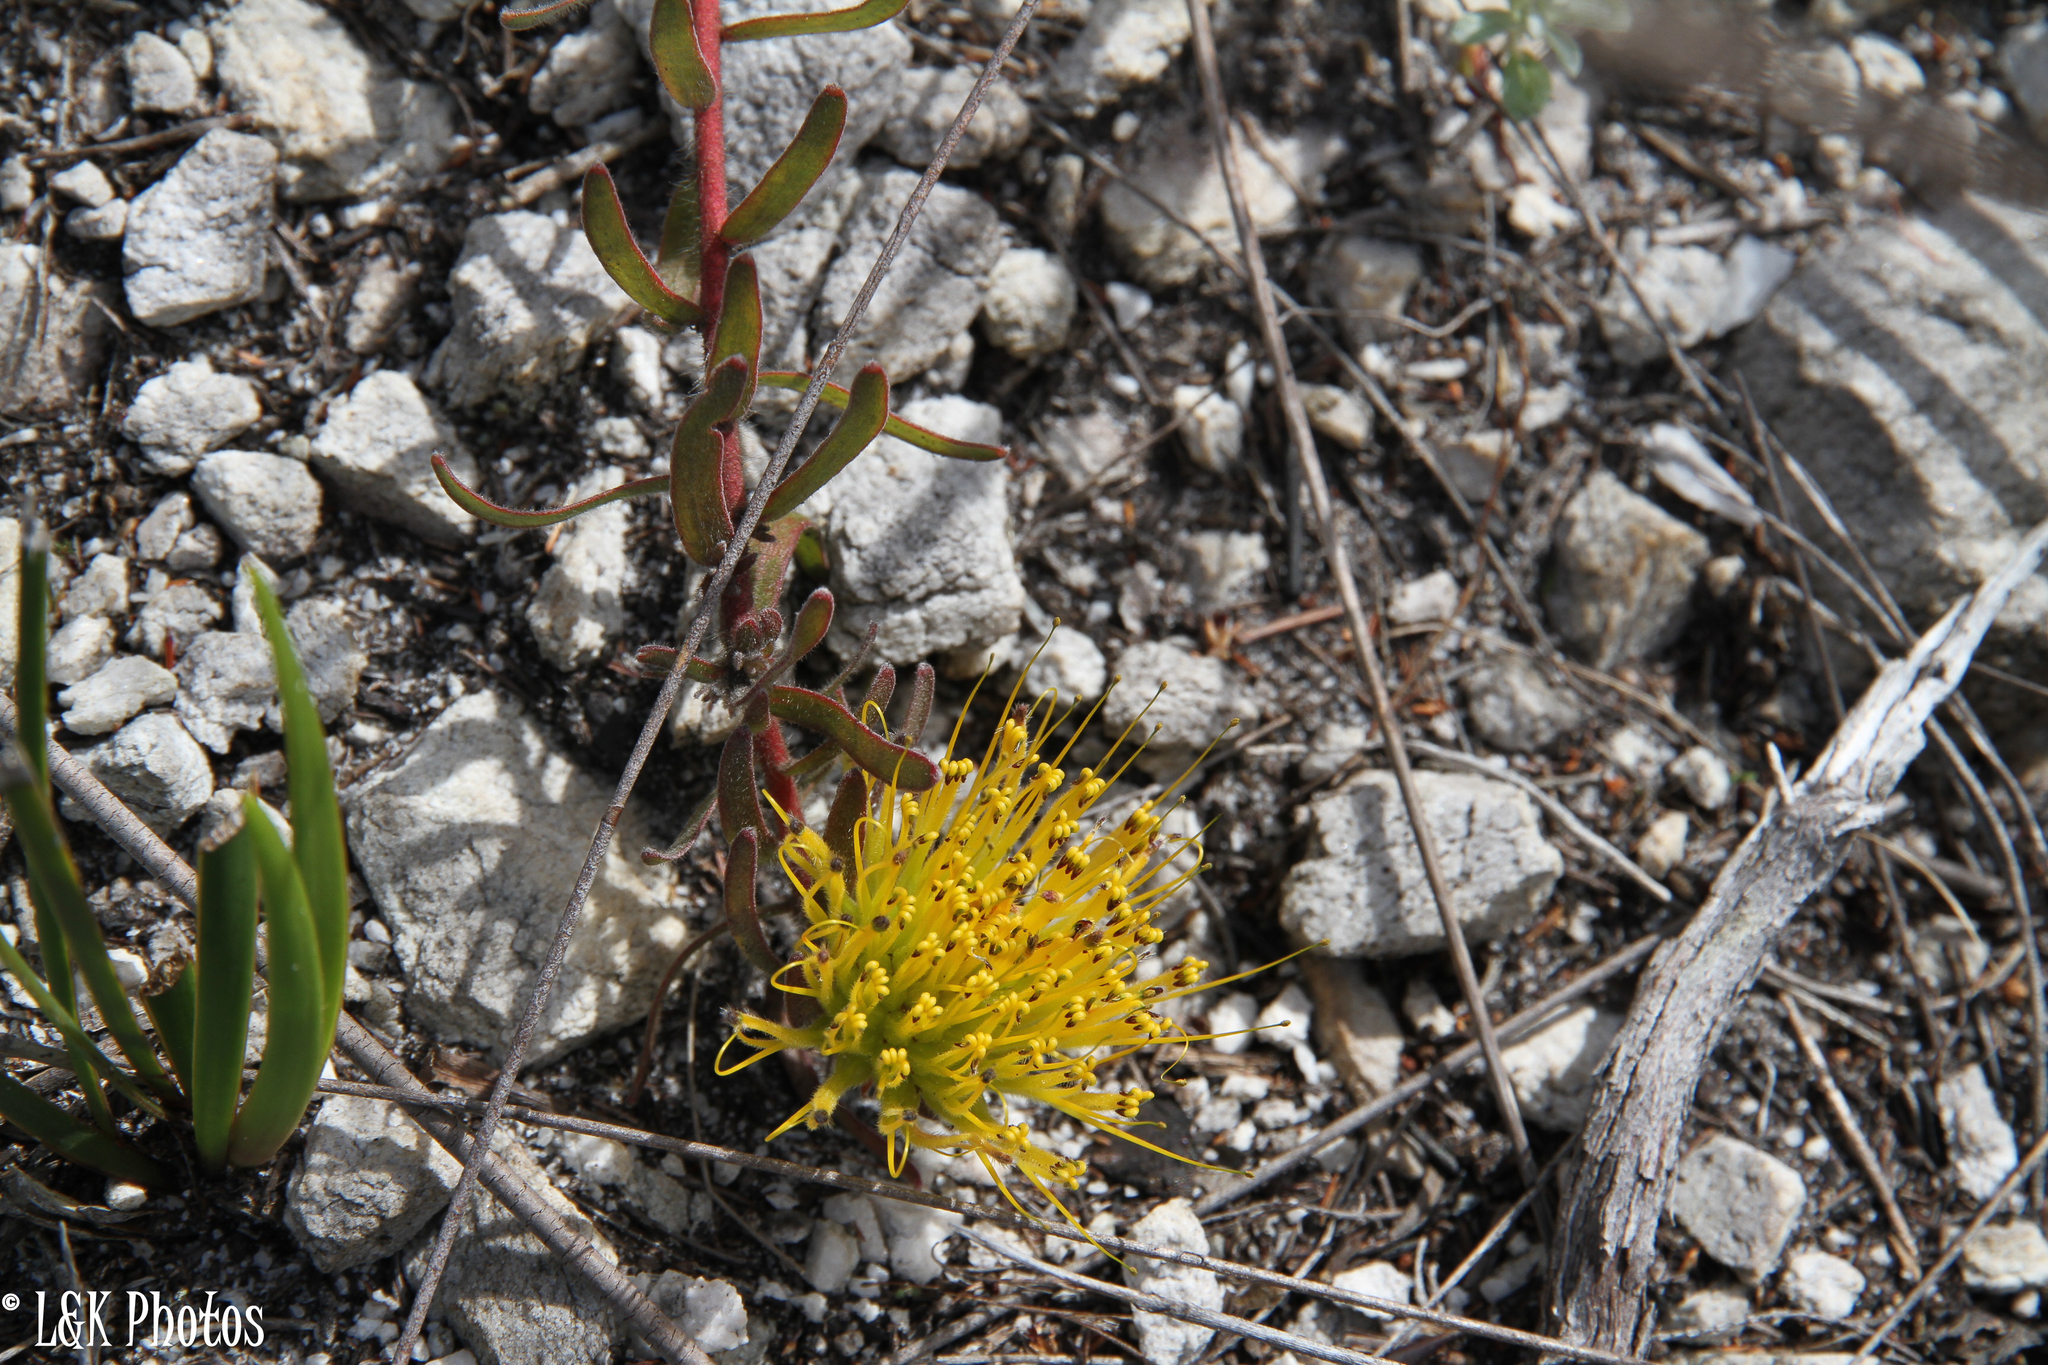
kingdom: Plantae
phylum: Tracheophyta
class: Magnoliopsida
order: Proteales
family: Proteaceae
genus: Leucospermum
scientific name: Leucospermum gracile
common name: Hermanus pincushion
